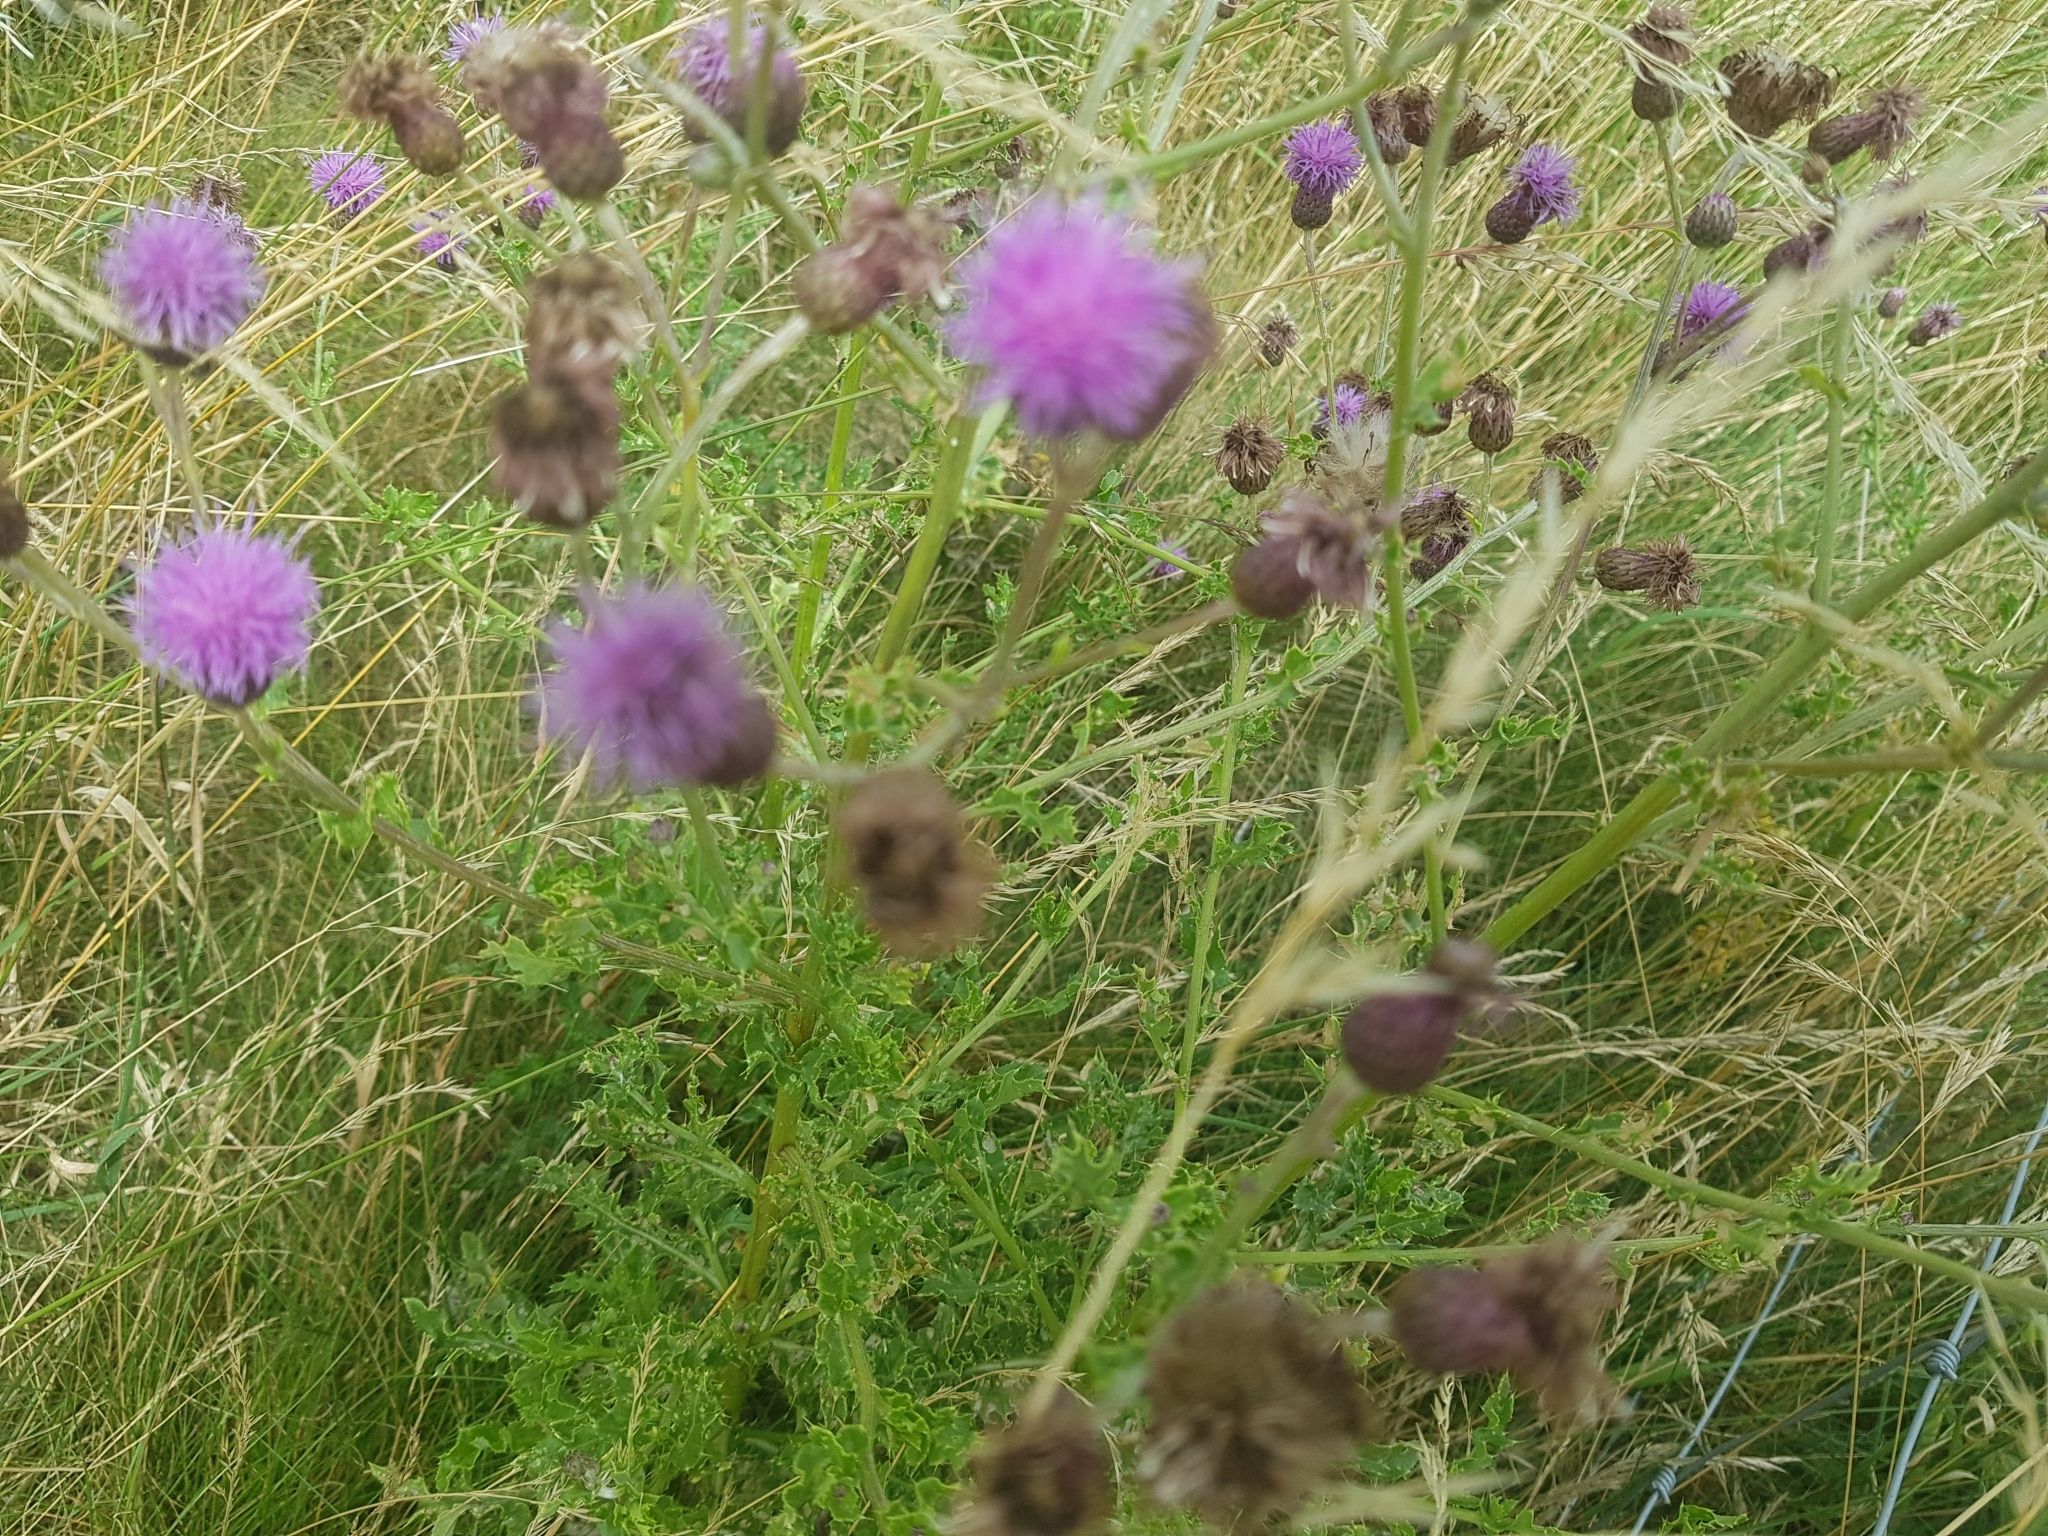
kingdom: Plantae
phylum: Tracheophyta
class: Magnoliopsida
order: Asterales
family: Asteraceae
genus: Cirsium
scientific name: Cirsium arvense
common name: Creeping thistle
